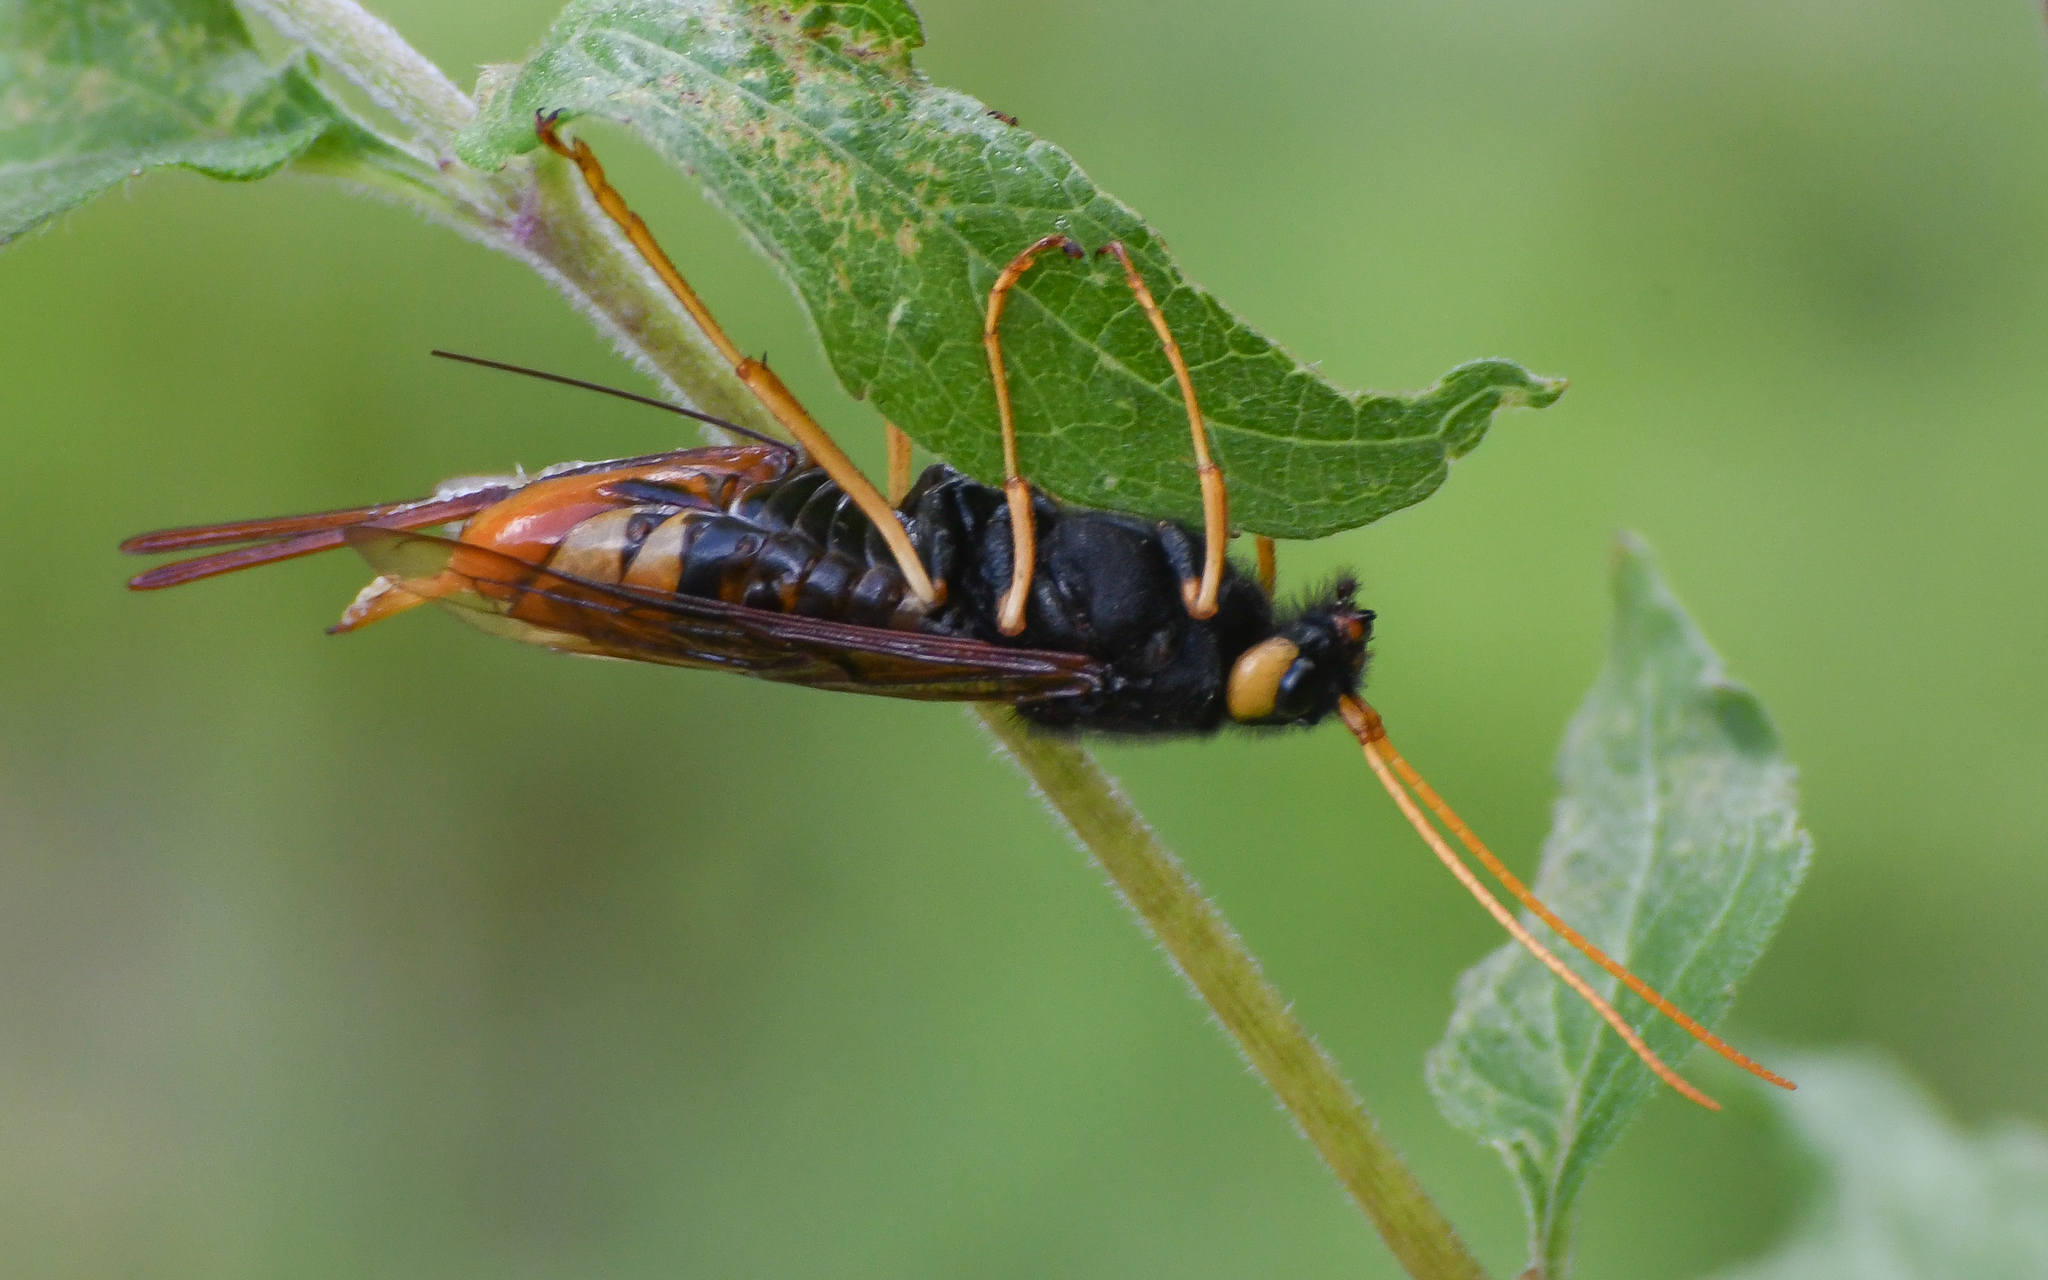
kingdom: Animalia
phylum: Arthropoda
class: Insecta
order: Hymenoptera
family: Siricidae
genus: Urocerus
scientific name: Urocerus gigas
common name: Giant woodwasp
